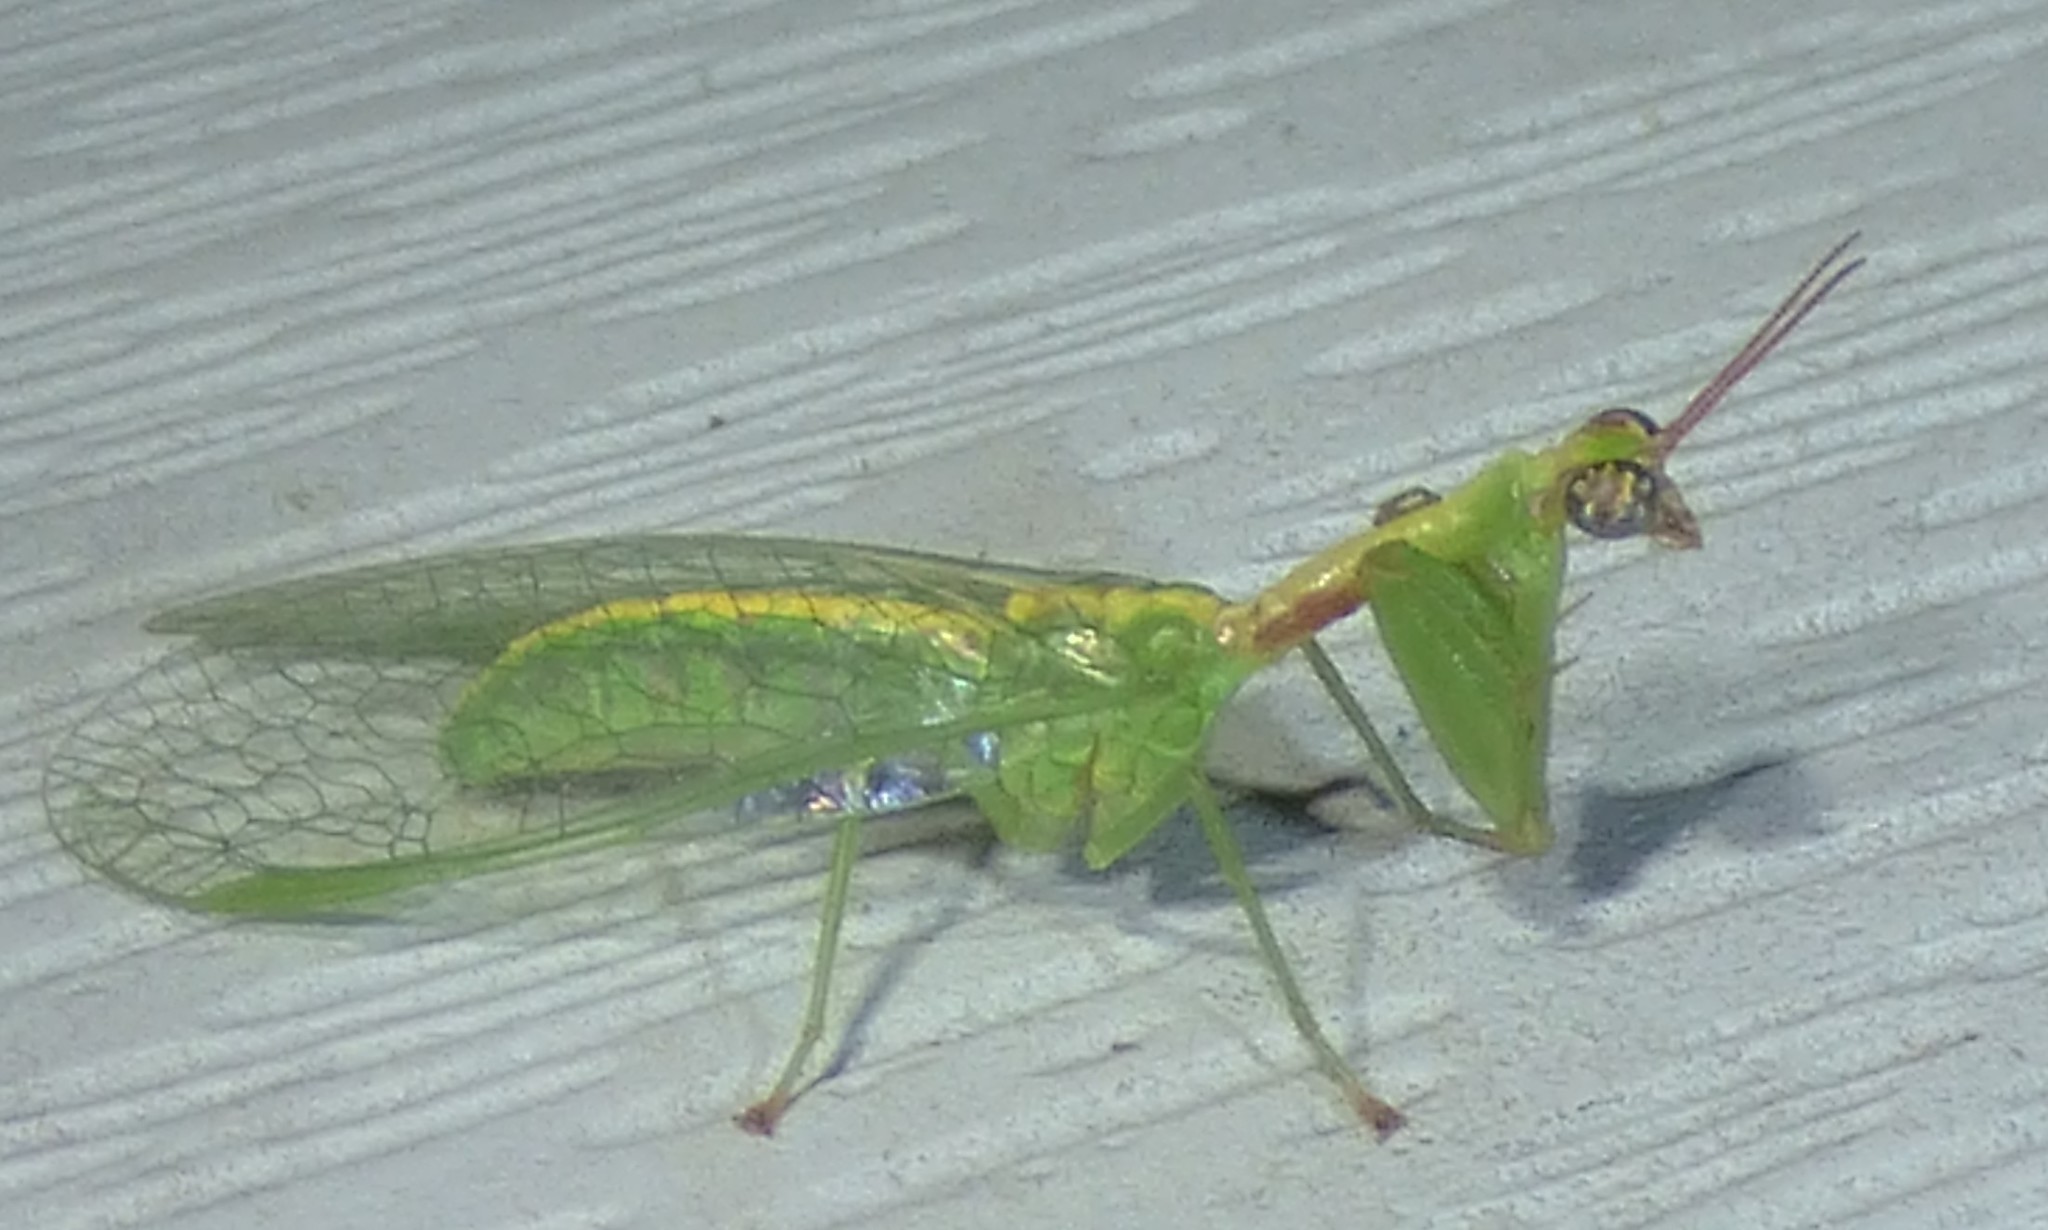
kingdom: Animalia
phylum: Arthropoda
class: Insecta
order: Neuroptera
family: Mantispidae
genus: Zeugomantispa
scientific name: Zeugomantispa minuta
